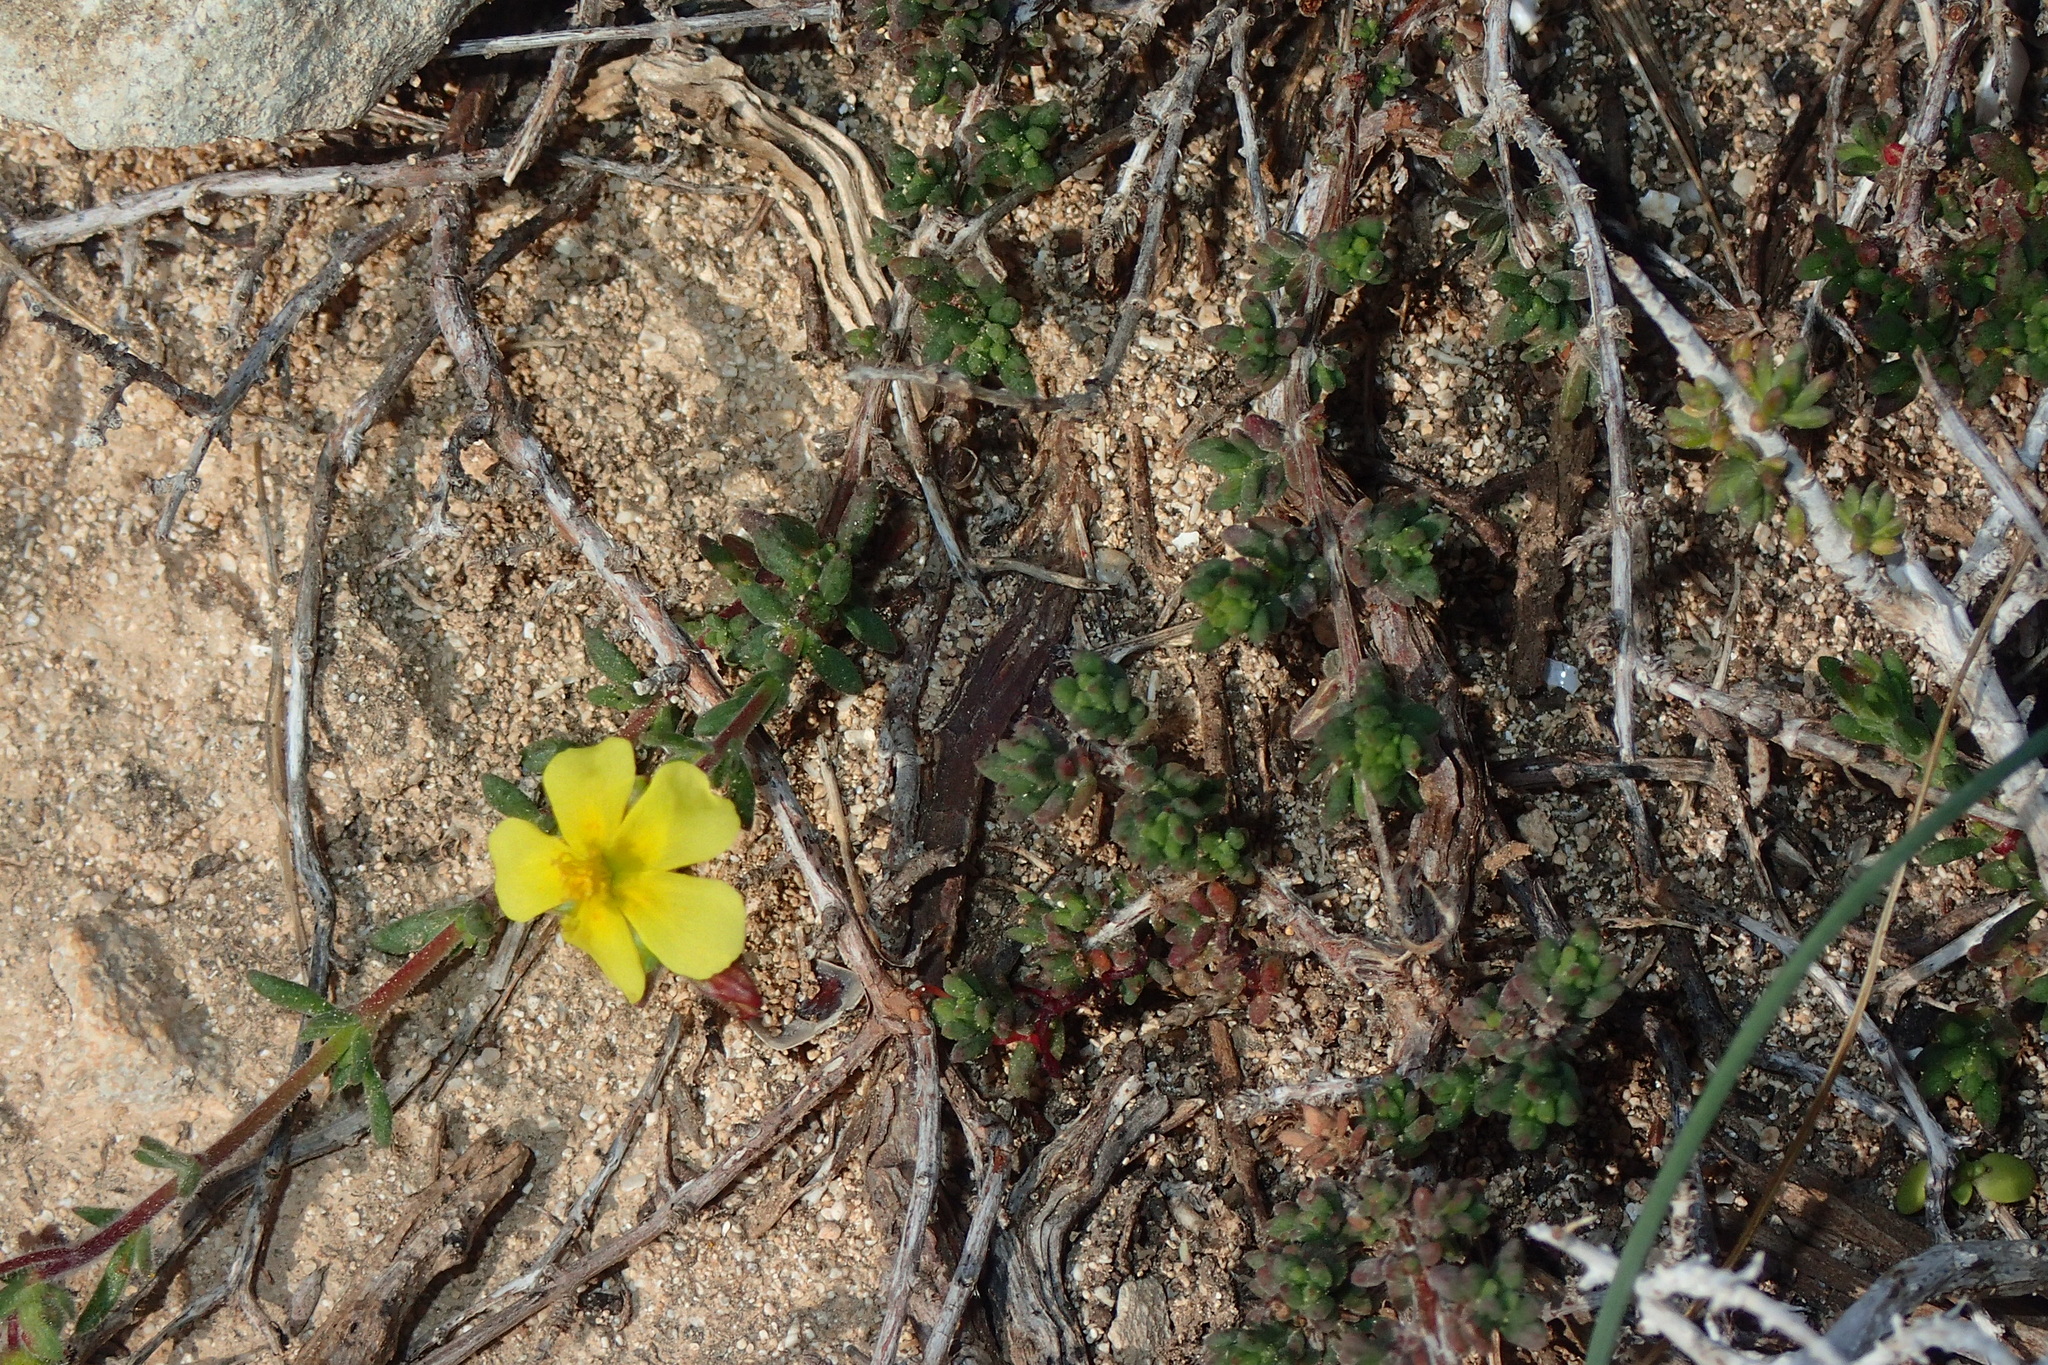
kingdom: Plantae
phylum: Tracheophyta
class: Magnoliopsida
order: Malvales
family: Cistaceae
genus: Fumana
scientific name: Fumana thymifolia
